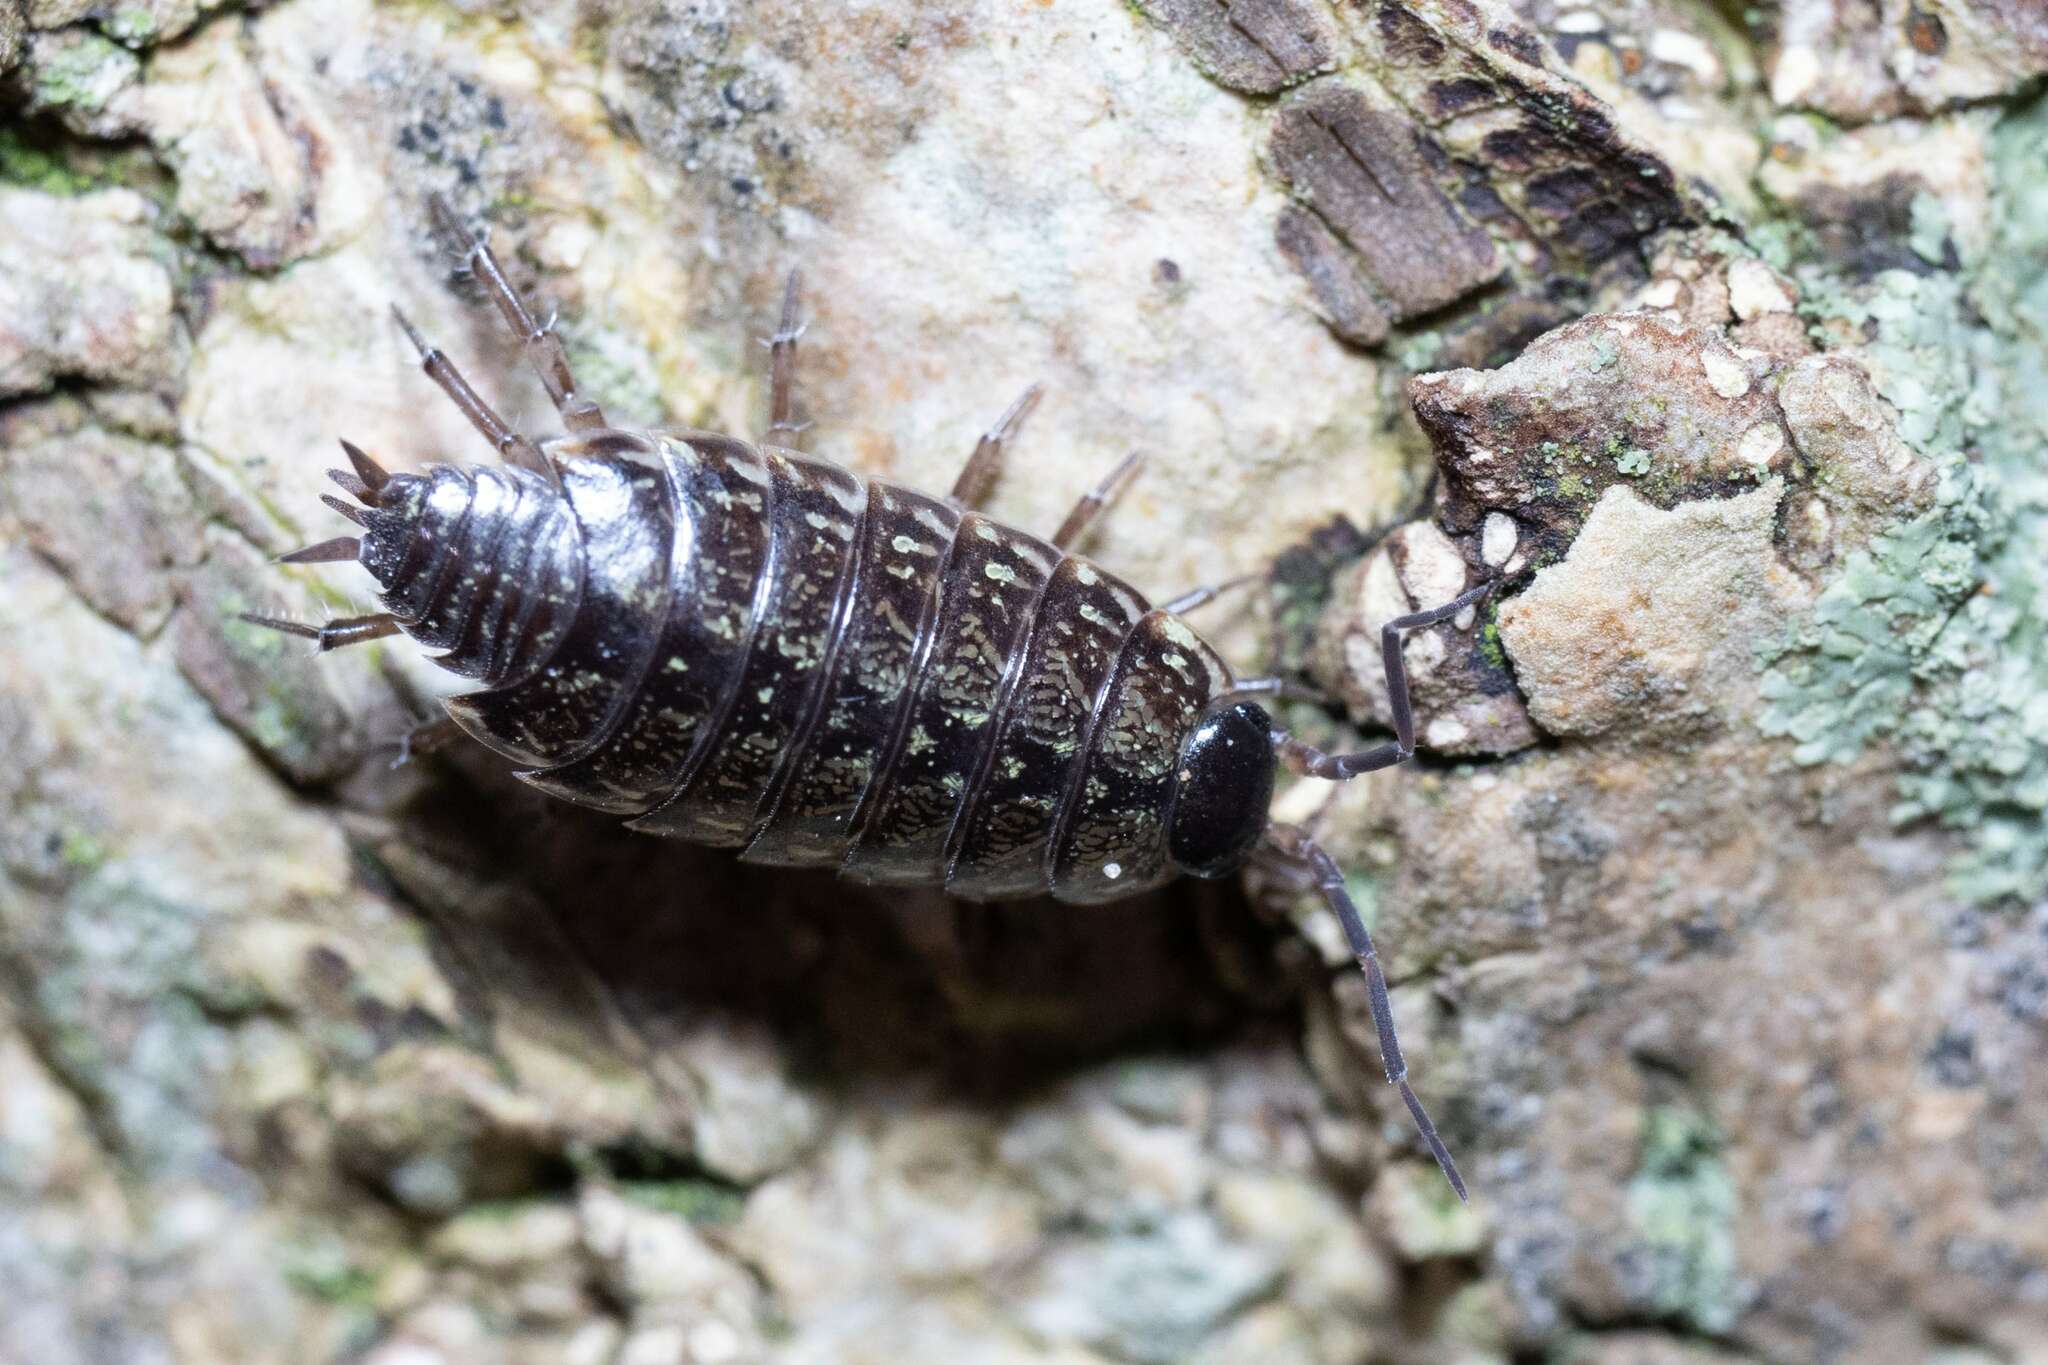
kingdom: Animalia
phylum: Arthropoda
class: Malacostraca
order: Isopoda
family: Philosciidae
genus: Philoscia
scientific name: Philoscia muscorum
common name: Common striped woodlouse
